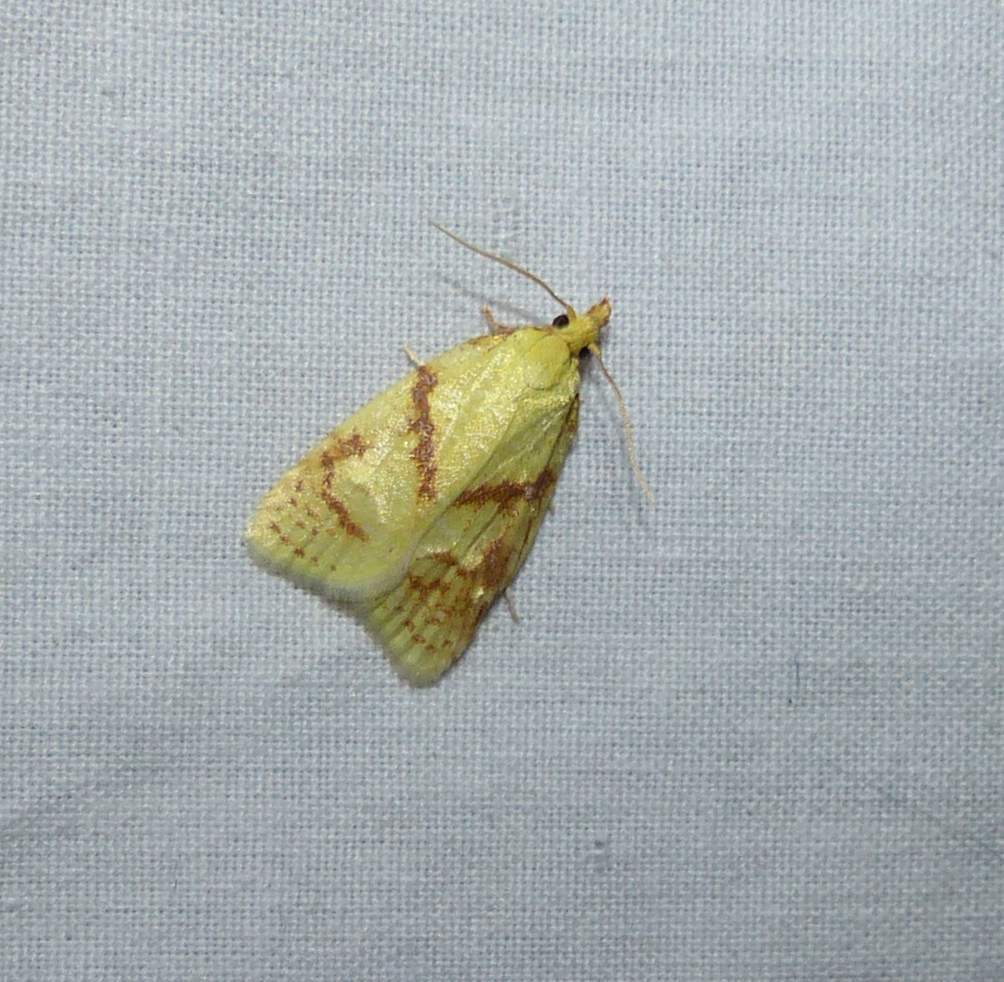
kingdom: Animalia
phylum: Arthropoda
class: Insecta
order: Lepidoptera
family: Tortricidae
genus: Cenopis
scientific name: Cenopis pettitana
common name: Maple-basswood leafroller moth
